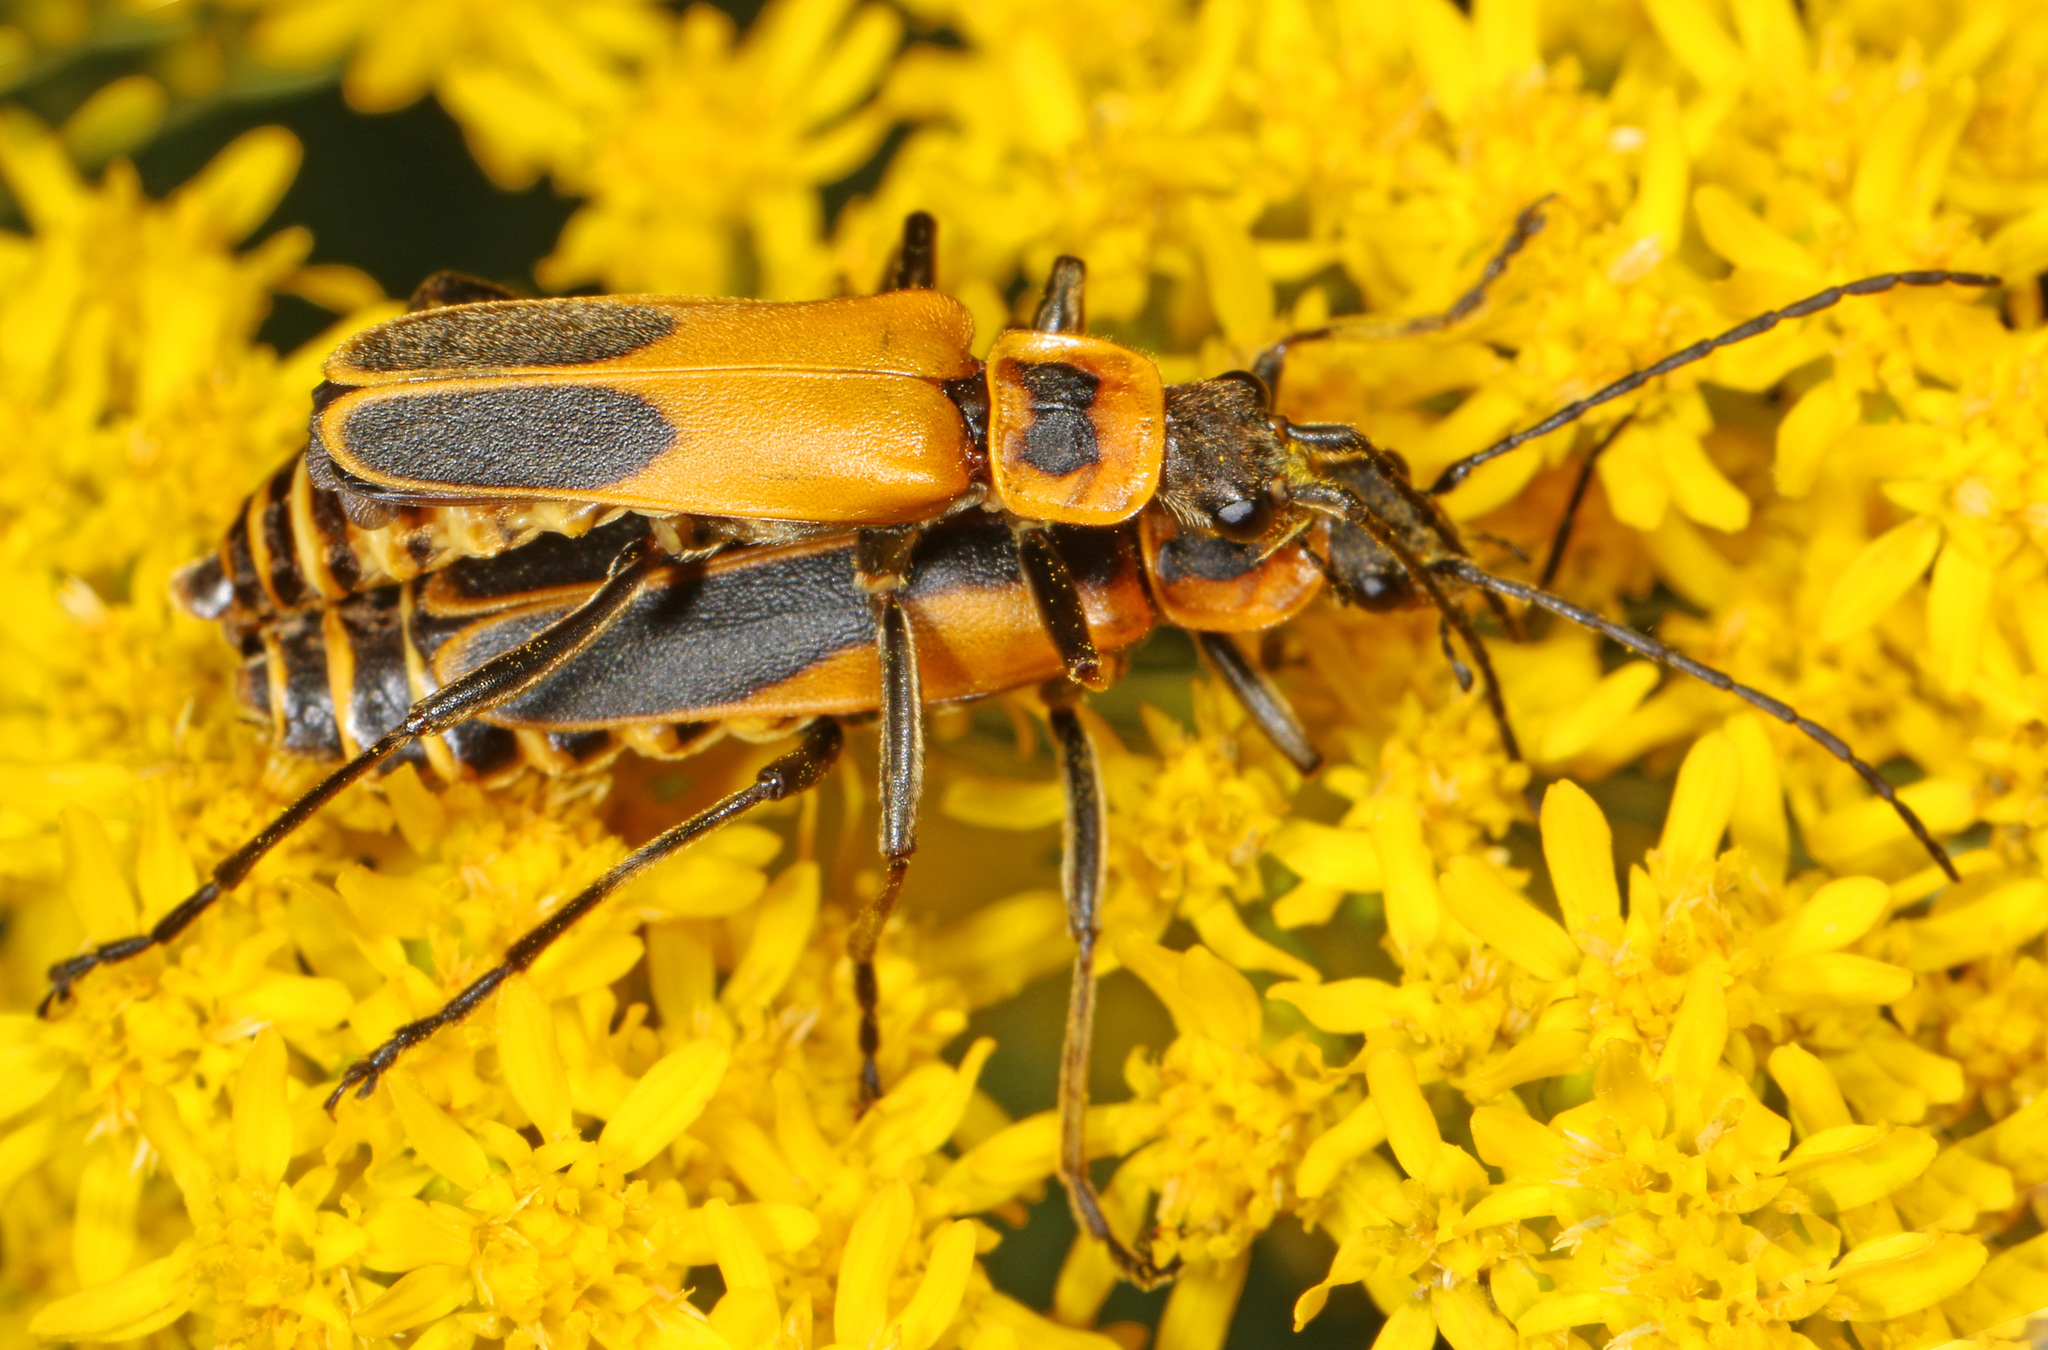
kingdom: Animalia
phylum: Arthropoda
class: Insecta
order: Coleoptera
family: Cantharidae
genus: Chauliognathus
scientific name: Chauliognathus pensylvanicus
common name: Goldenrod soldier beetle
